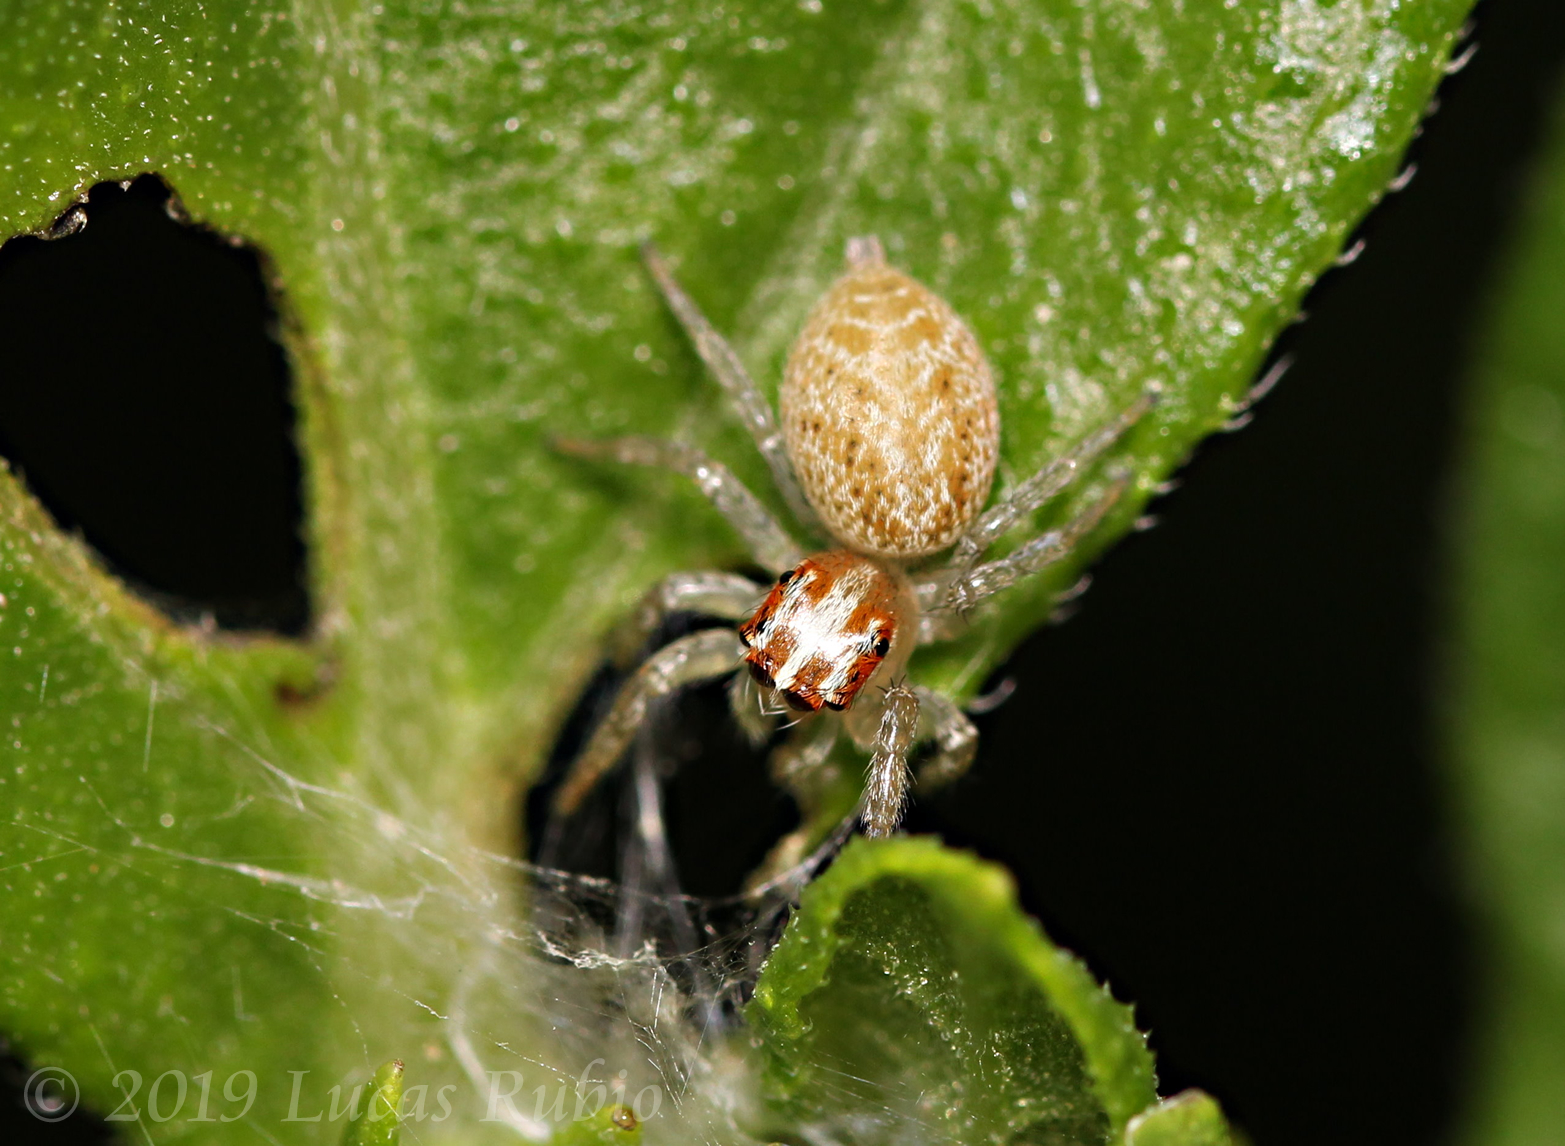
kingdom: Animalia
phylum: Arthropoda
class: Arachnida
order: Araneae
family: Salticidae
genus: Chira
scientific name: Chira gounellei
